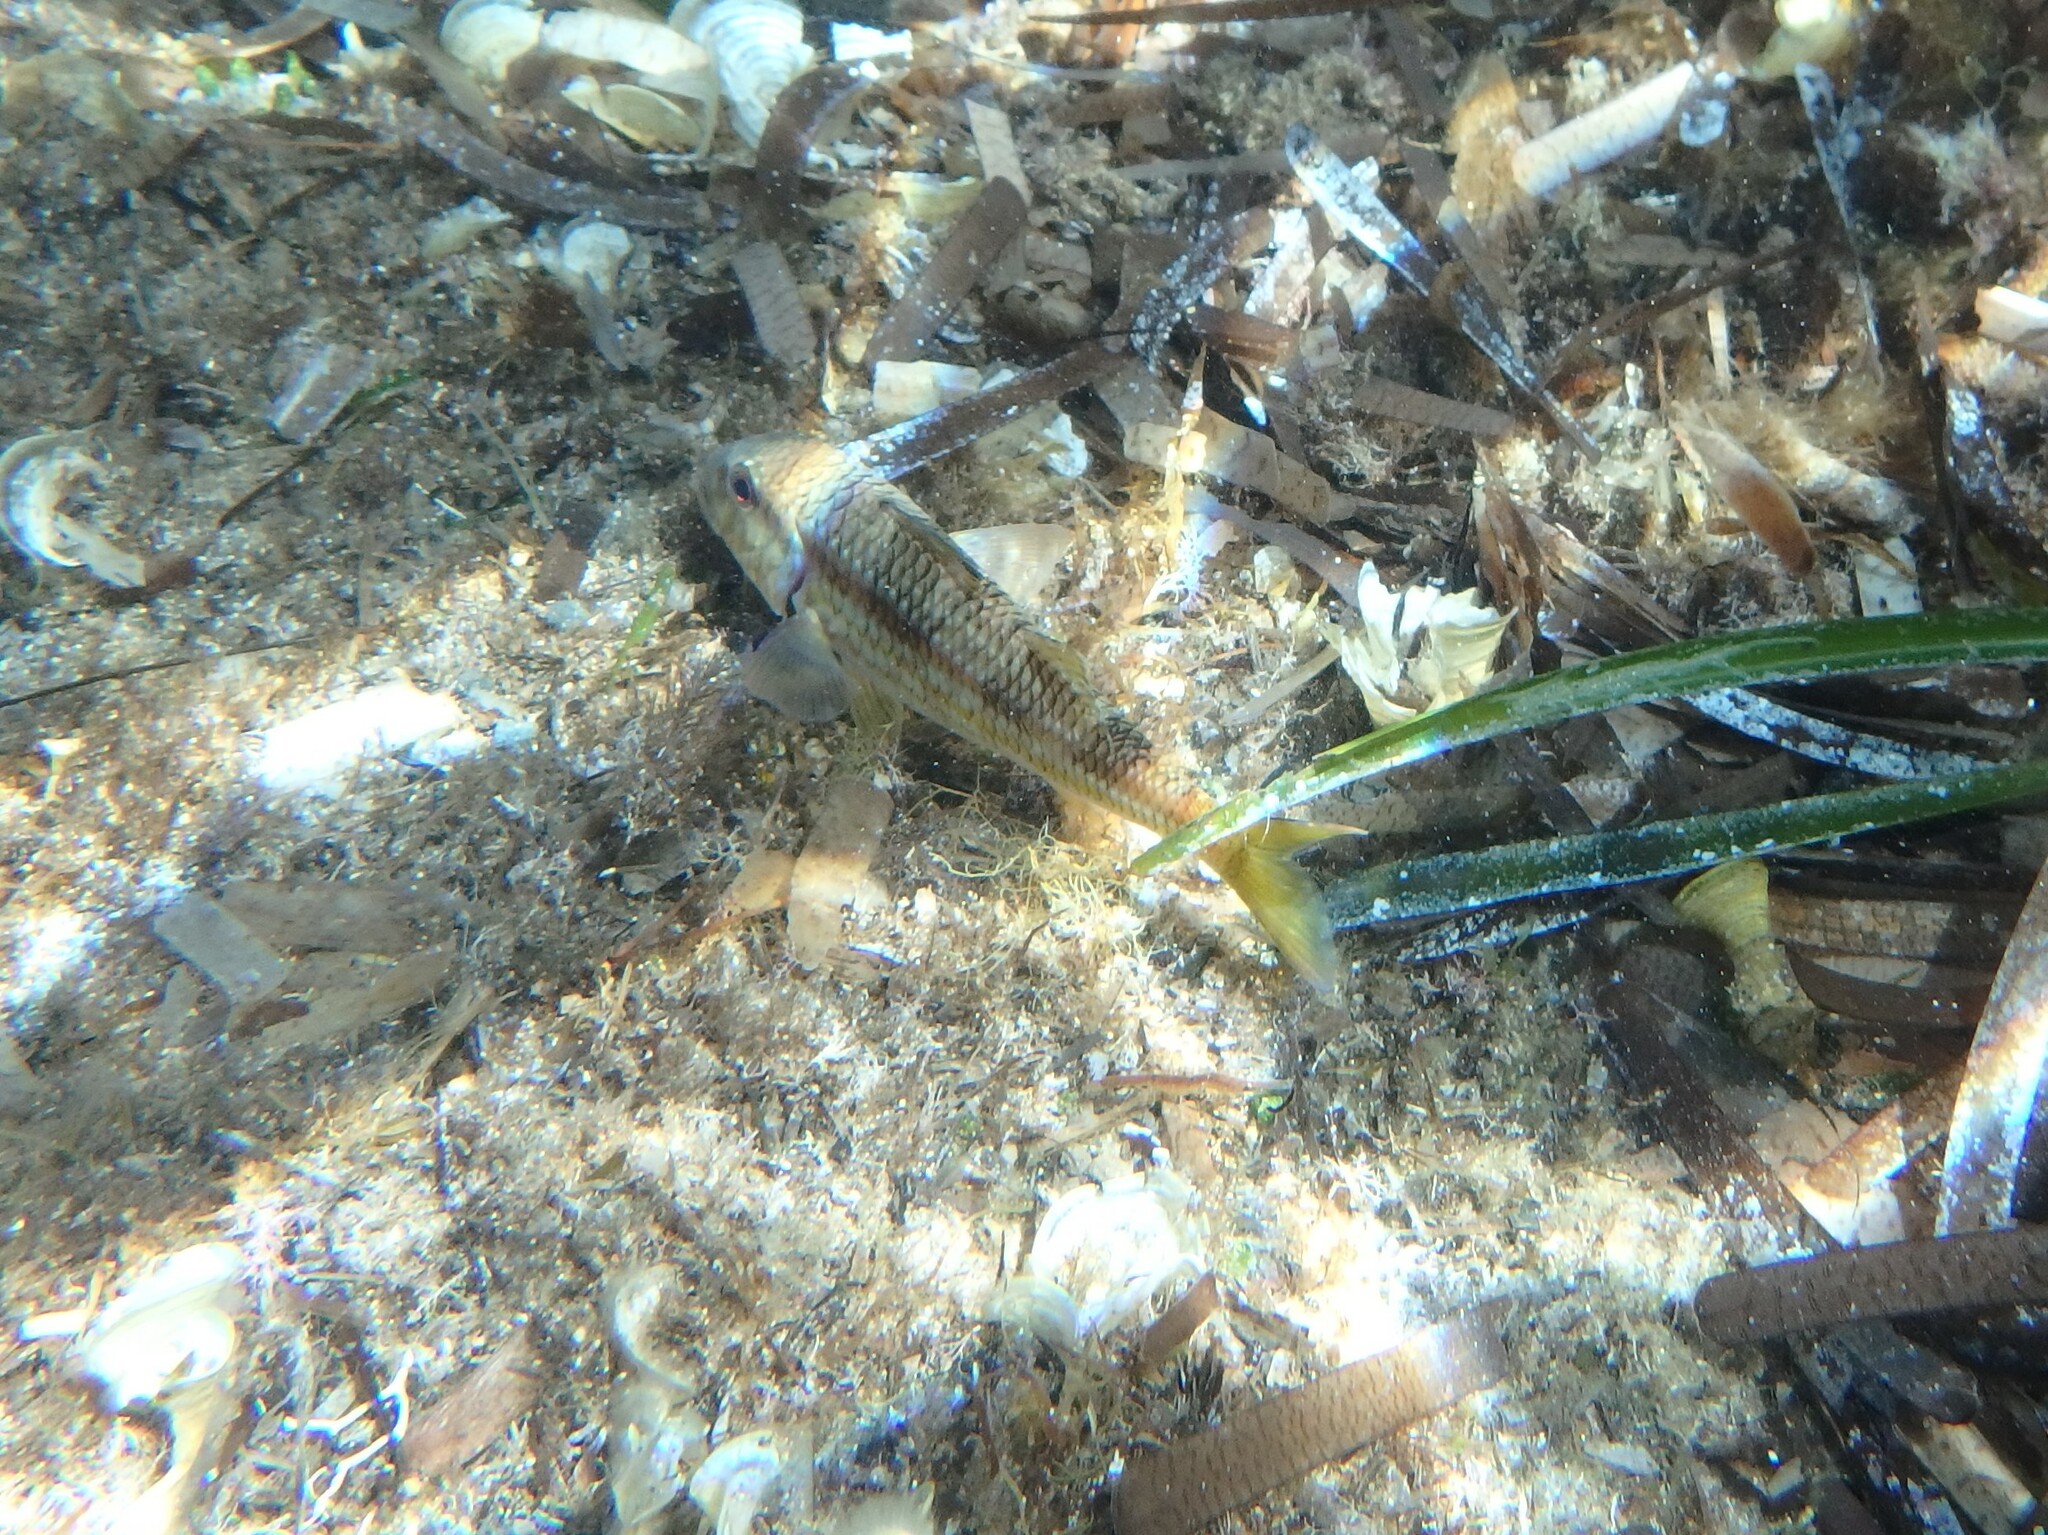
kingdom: Animalia
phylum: Chordata
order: Perciformes
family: Mullidae
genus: Mullus
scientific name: Mullus surmuletus
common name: Red mullet
